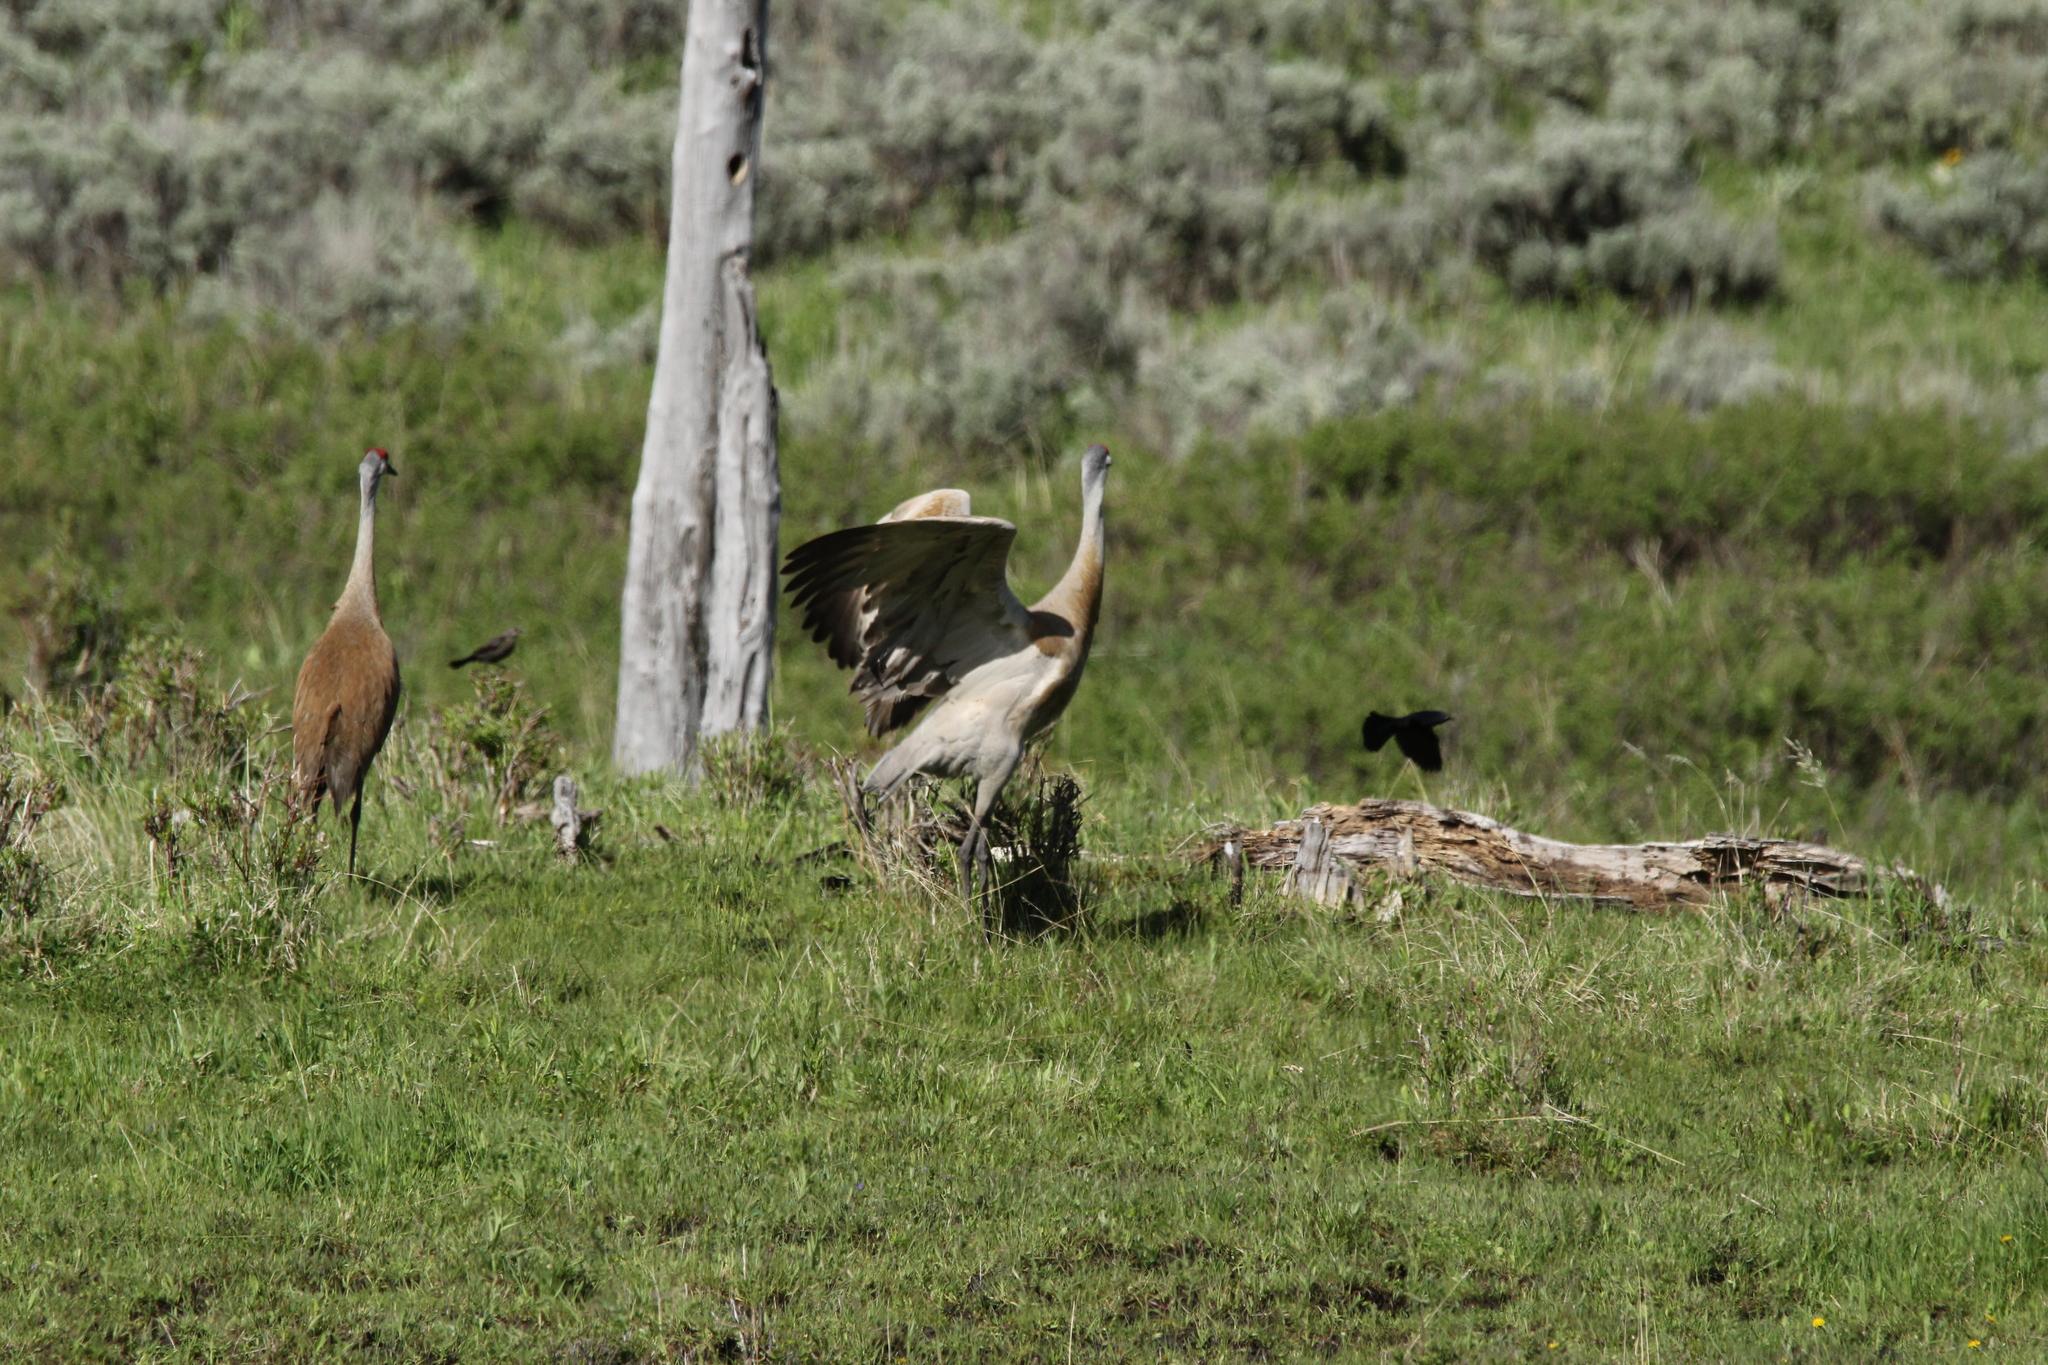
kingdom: Animalia
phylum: Chordata
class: Aves
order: Gruiformes
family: Gruidae
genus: Grus
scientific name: Grus canadensis
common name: Sandhill crane
